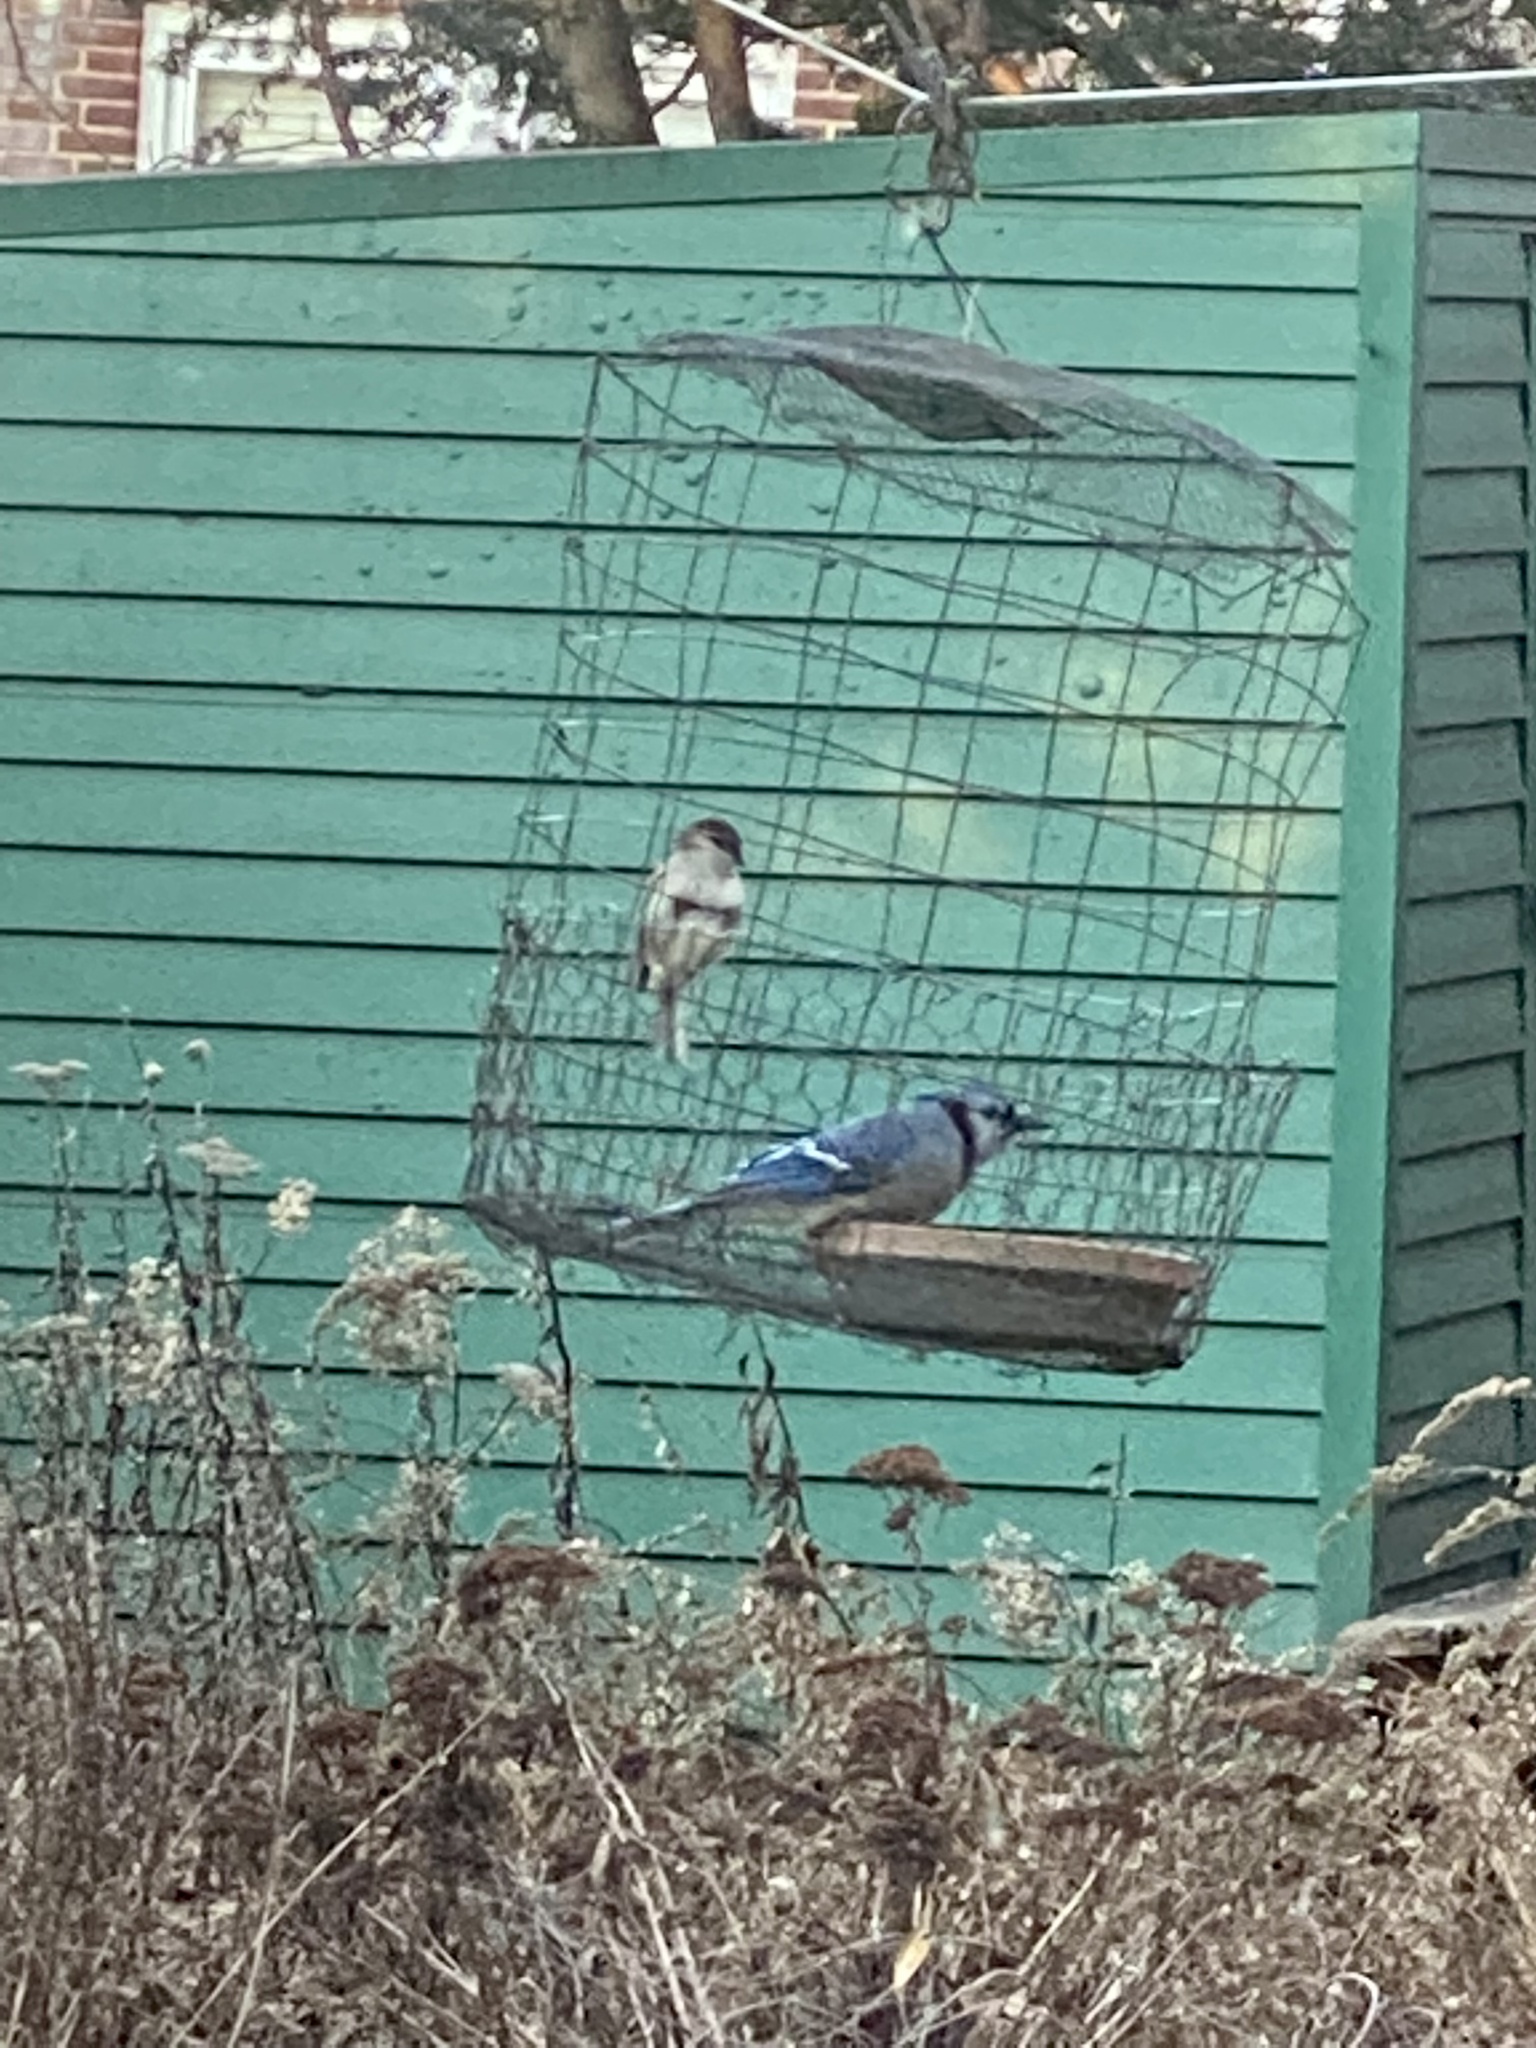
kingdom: Animalia
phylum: Chordata
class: Aves
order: Passeriformes
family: Corvidae
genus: Cyanocitta
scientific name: Cyanocitta cristata
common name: Blue jay
